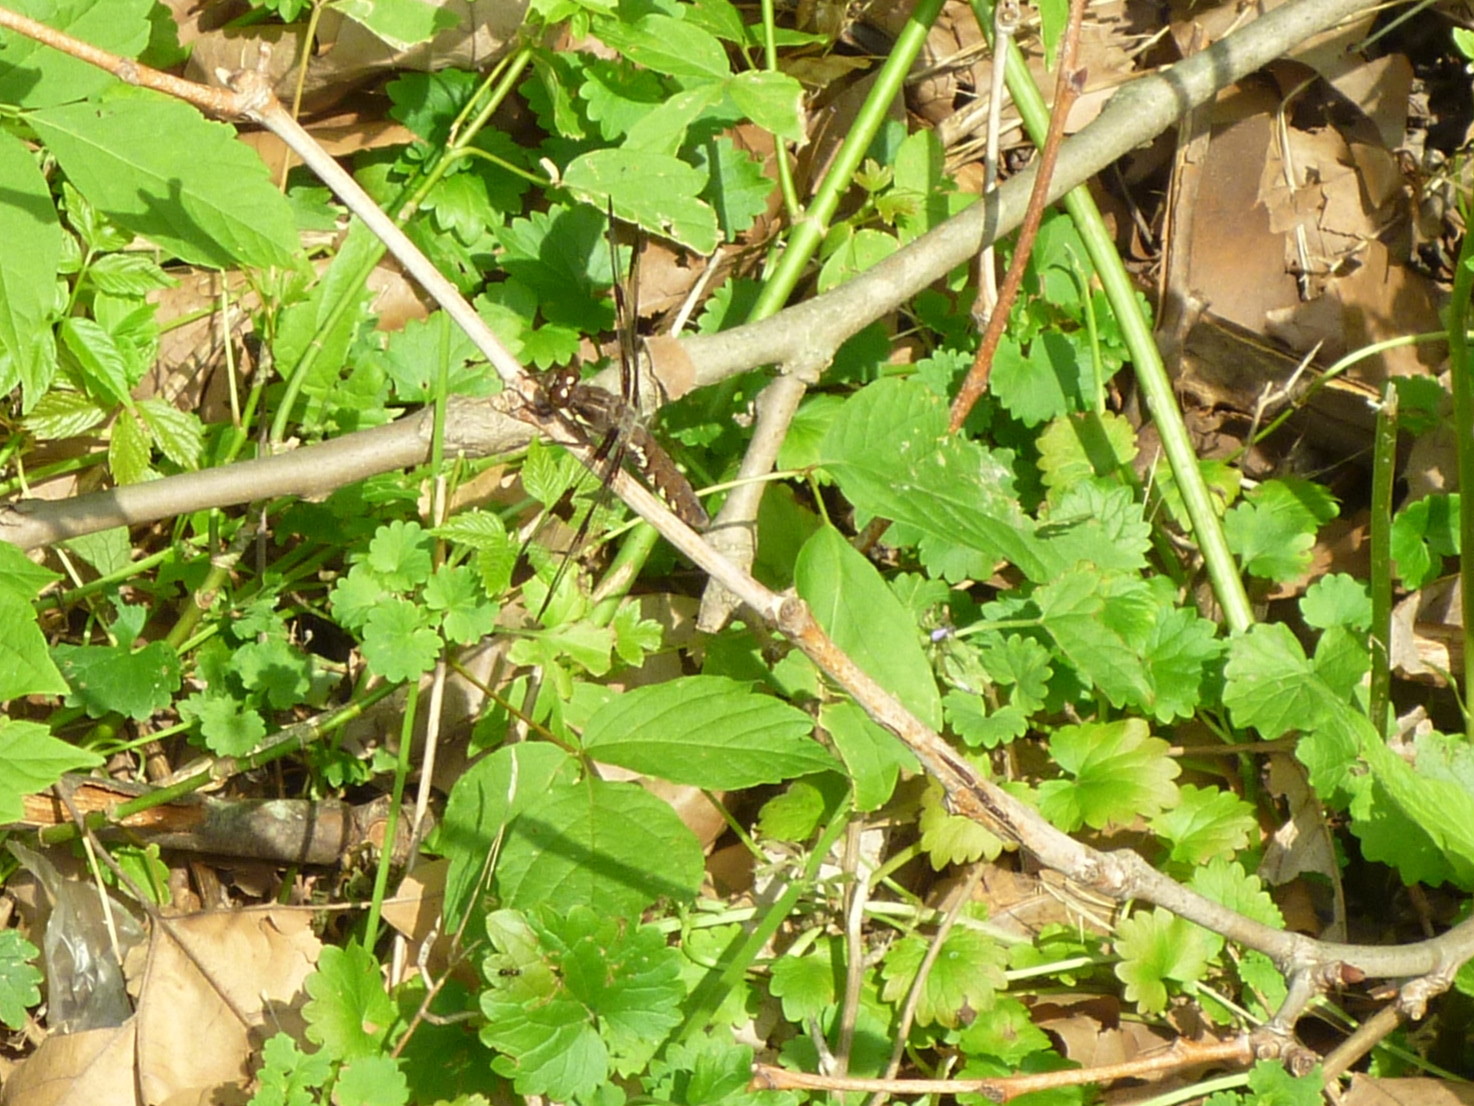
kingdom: Animalia
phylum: Arthropoda
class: Insecta
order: Odonata
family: Libellulidae
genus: Plathemis
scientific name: Plathemis lydia
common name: Common whitetail
